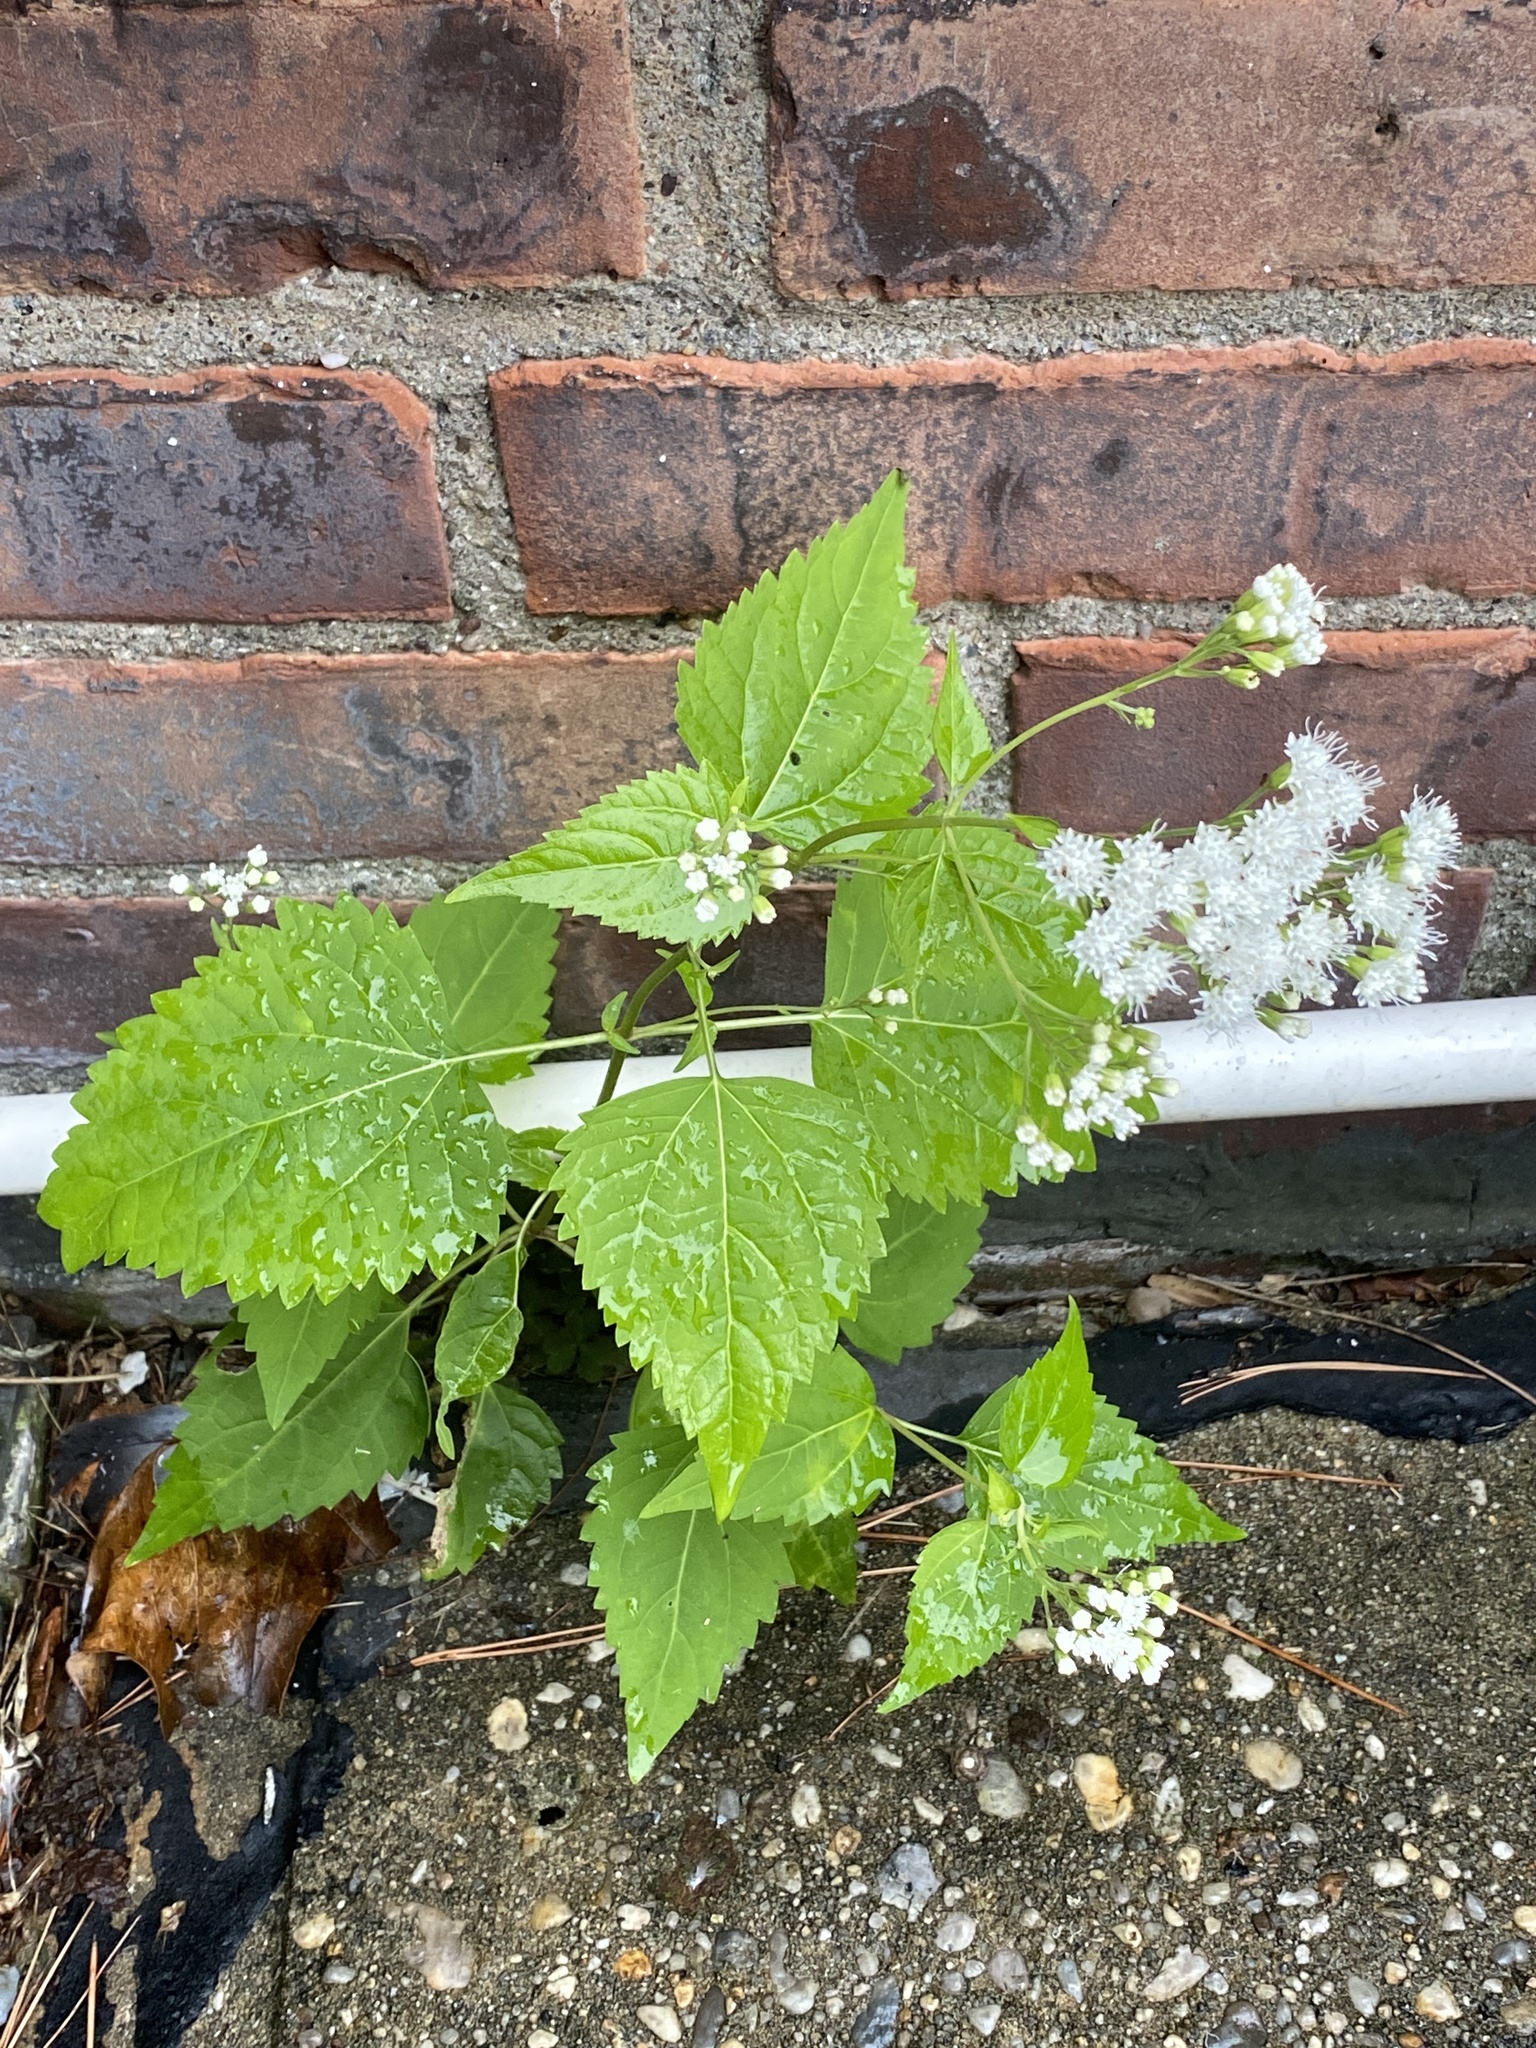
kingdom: Plantae
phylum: Tracheophyta
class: Magnoliopsida
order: Asterales
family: Asteraceae
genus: Ageratina
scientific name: Ageratina altissima
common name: White snakeroot
